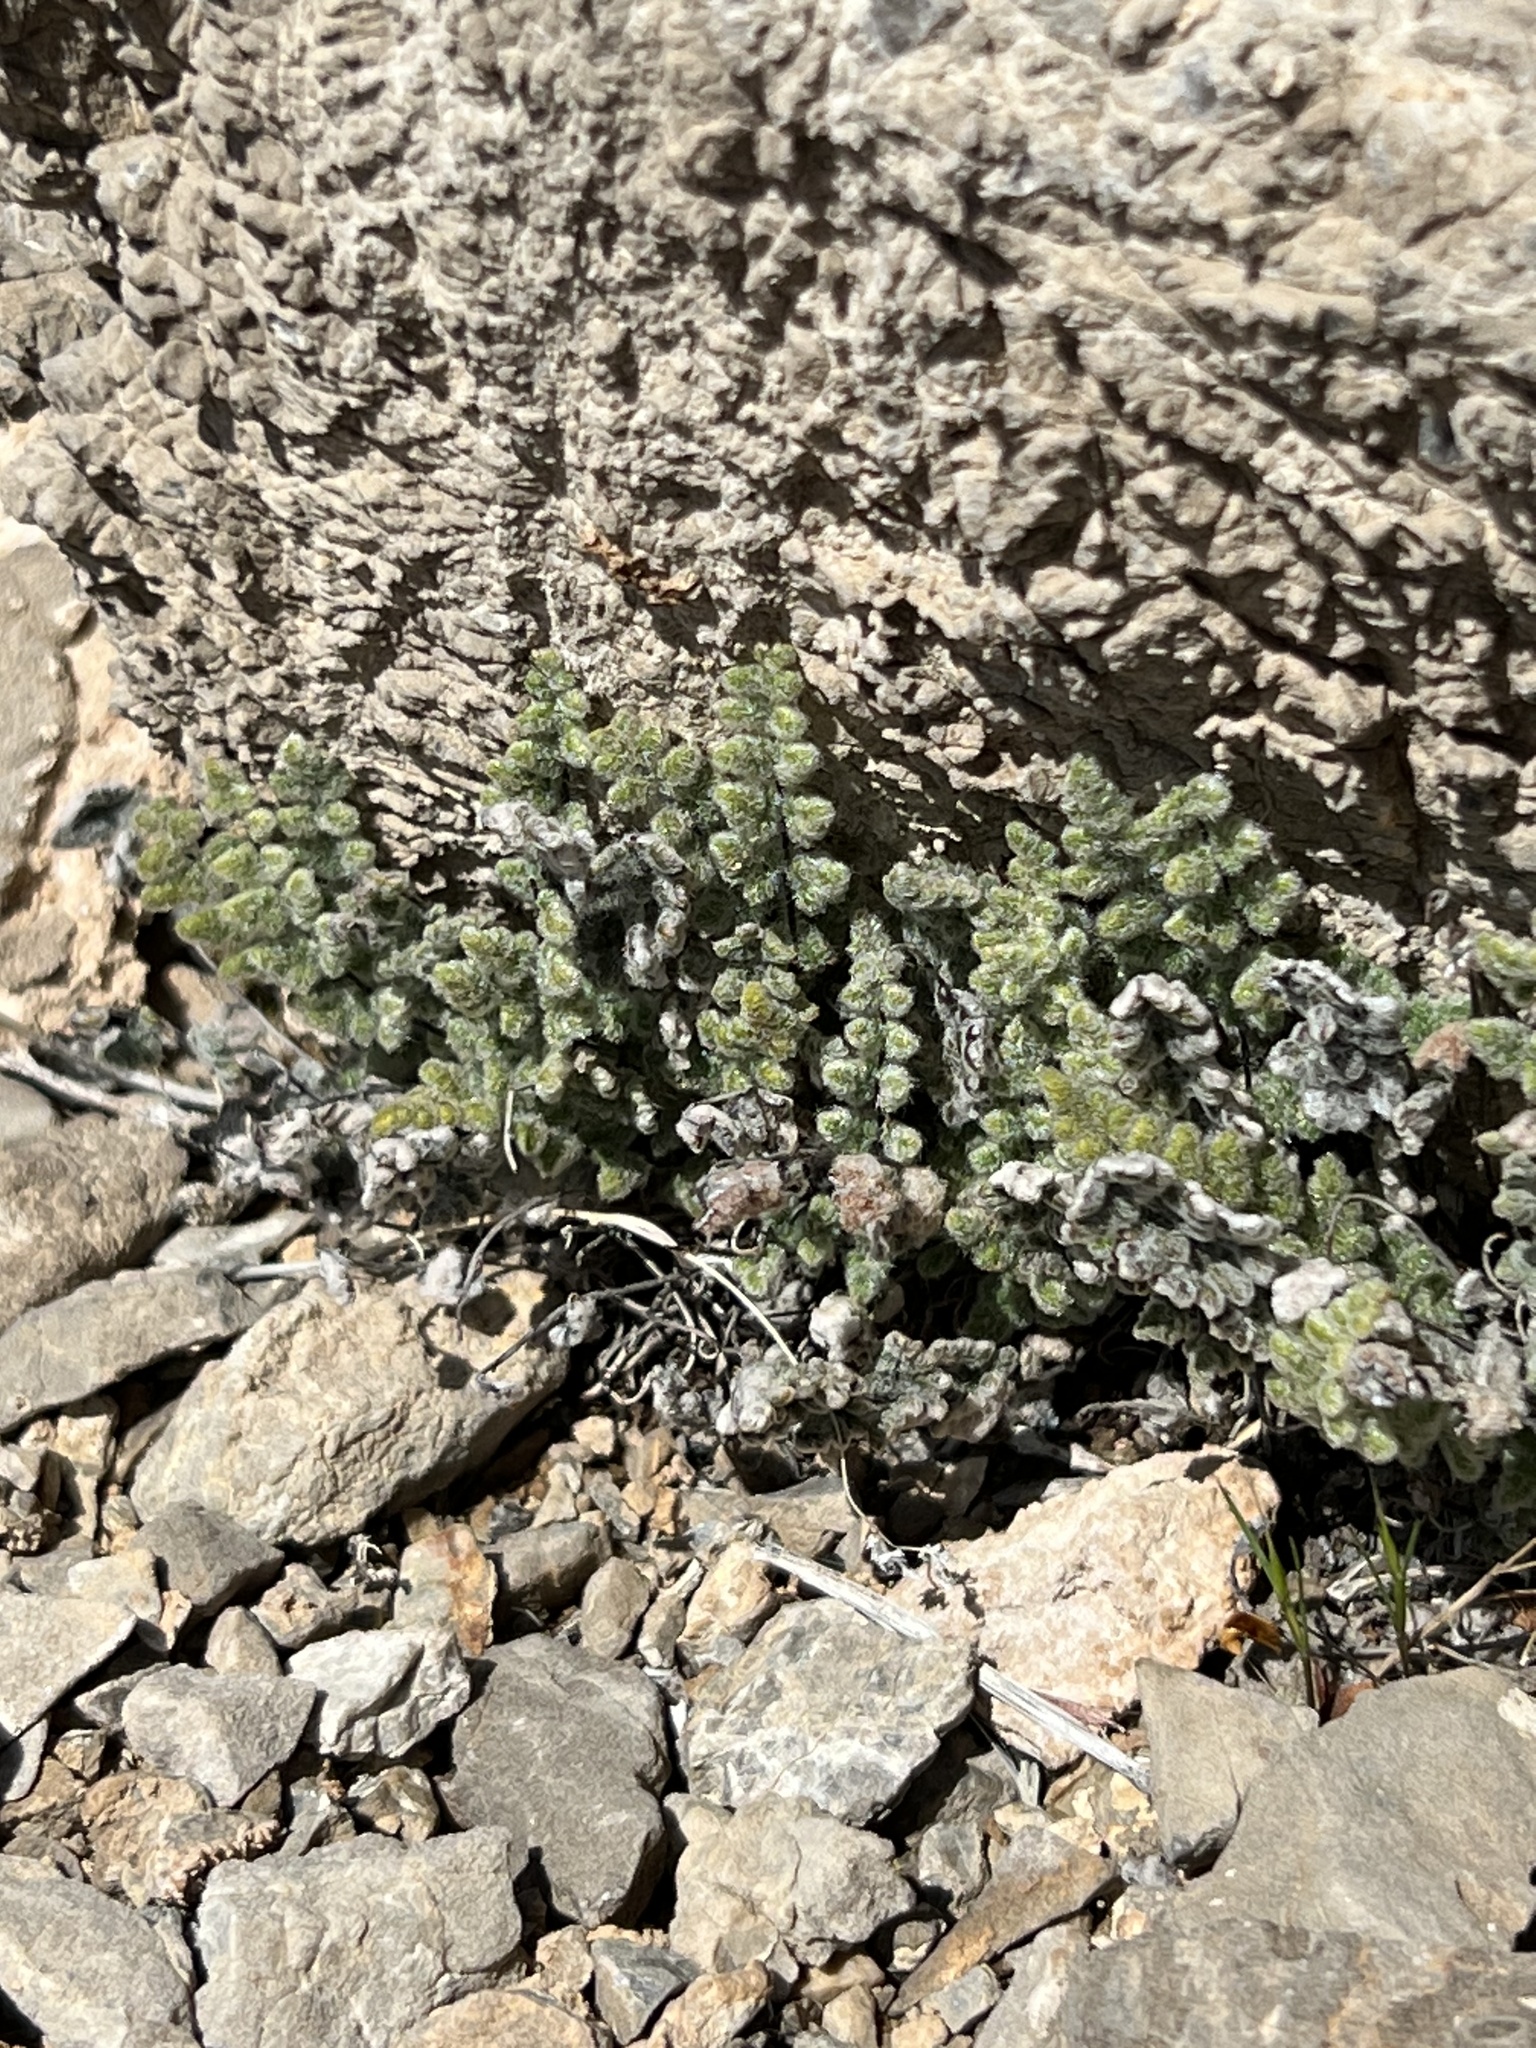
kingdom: Plantae
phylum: Tracheophyta
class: Polypodiopsida
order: Polypodiales
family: Pteridaceae
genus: Myriopteris
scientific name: Myriopteris parryi
